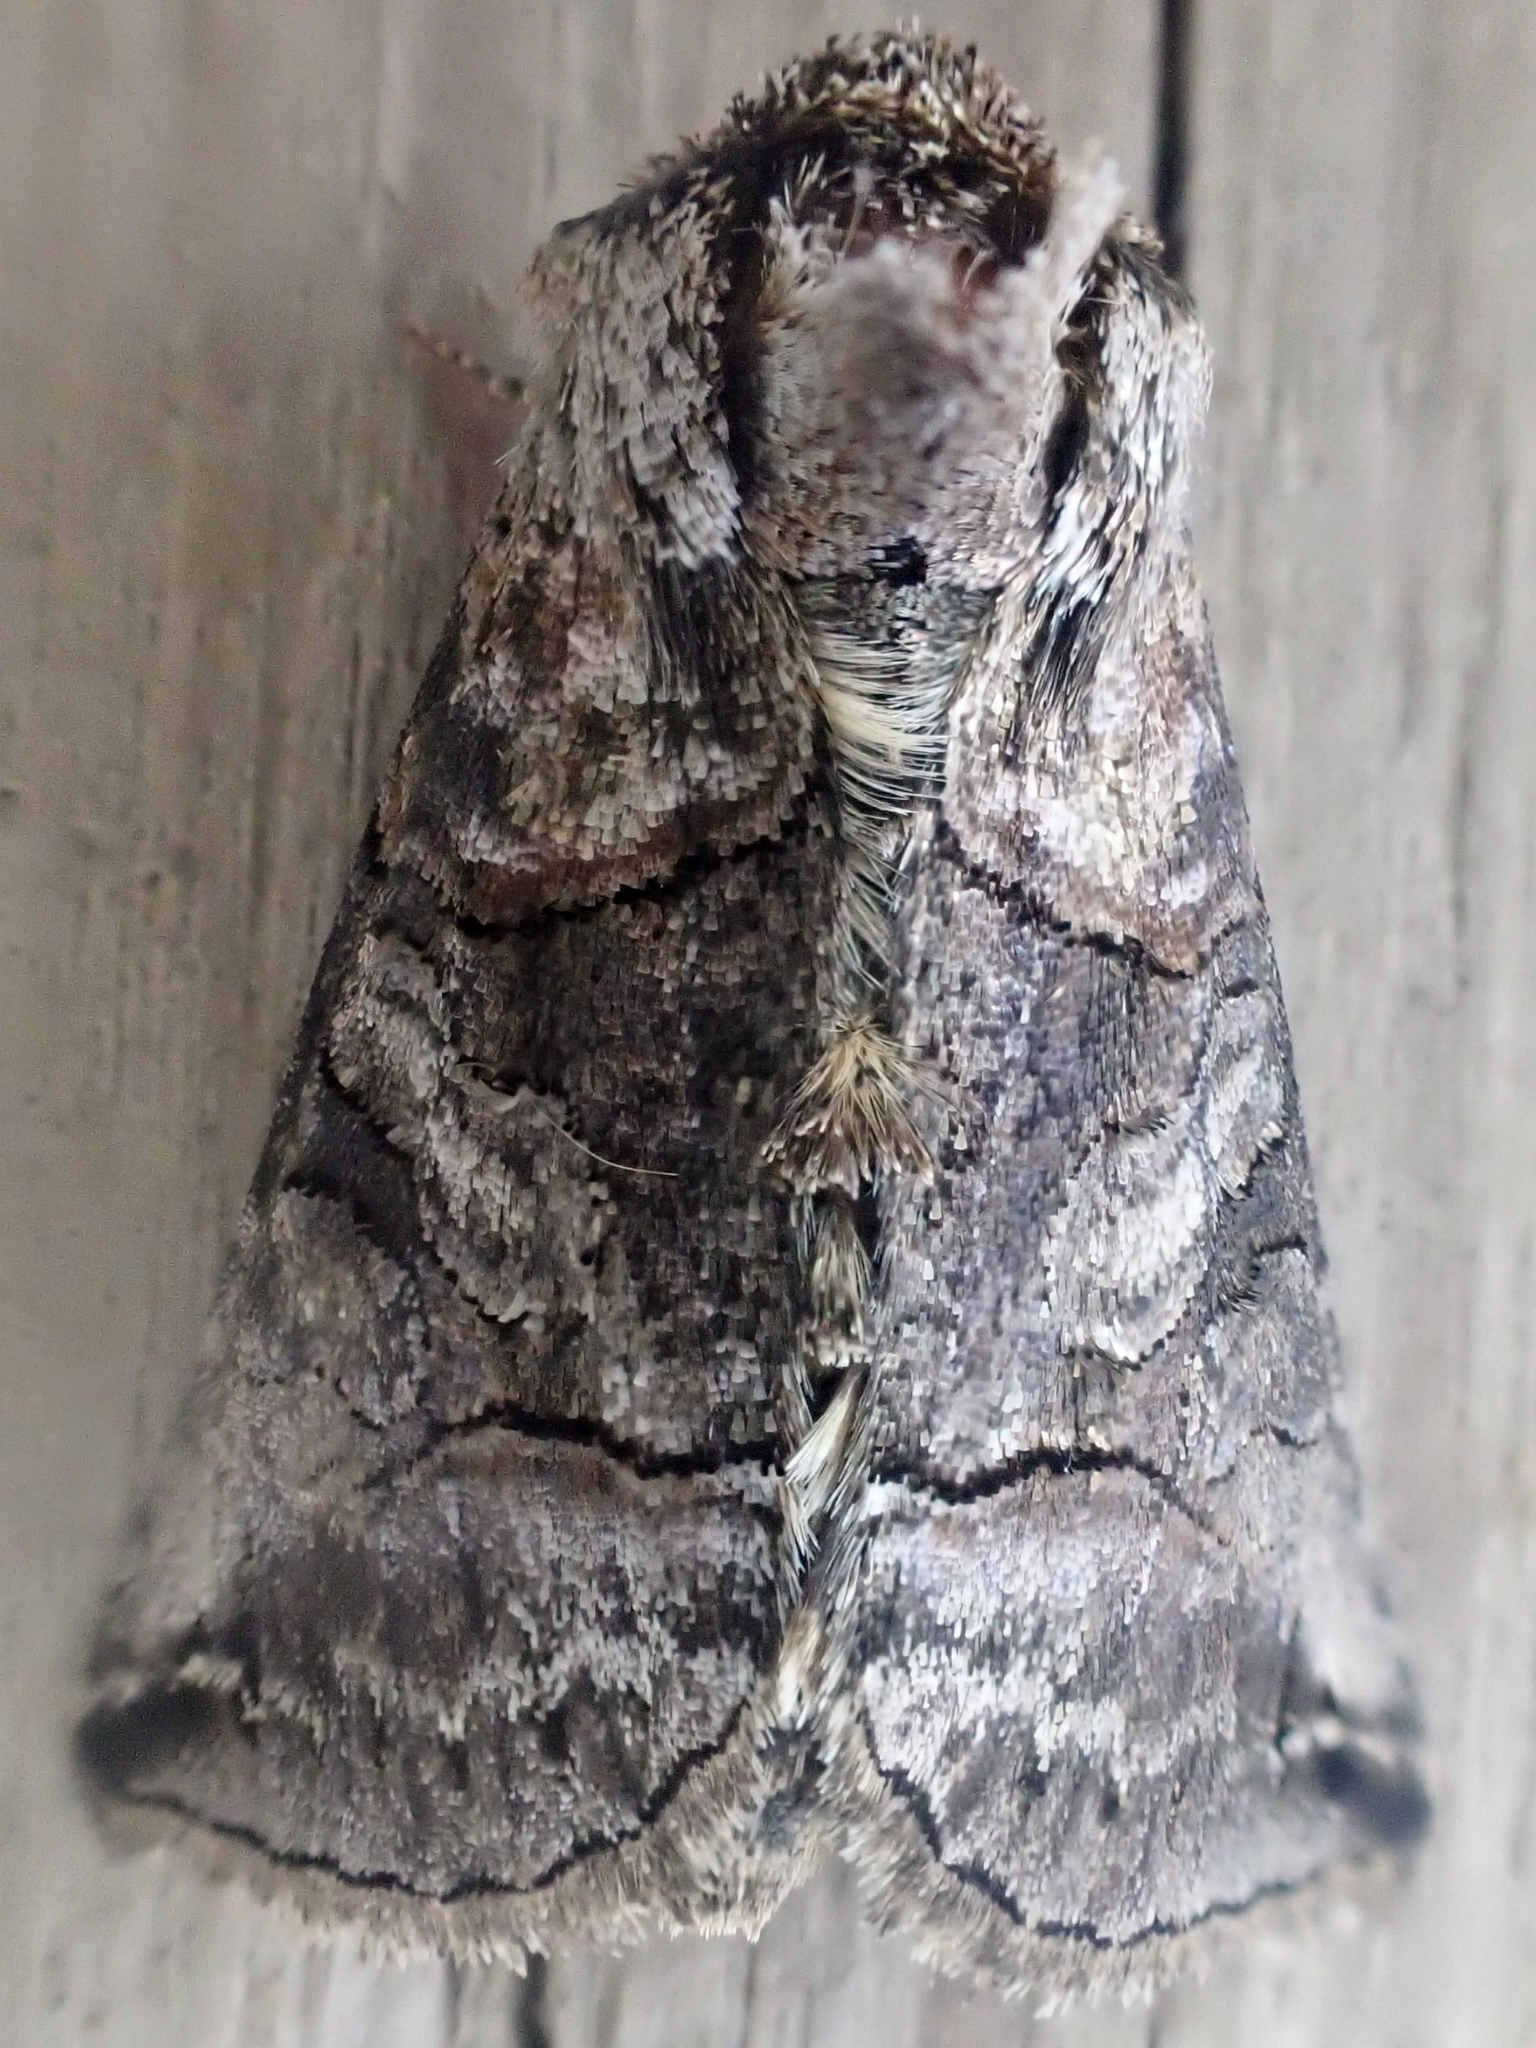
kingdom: Animalia
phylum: Arthropoda
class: Insecta
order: Lepidoptera
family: Noctuidae
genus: Abrostola
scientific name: Abrostola urentis
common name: Spectacled nettle moth
